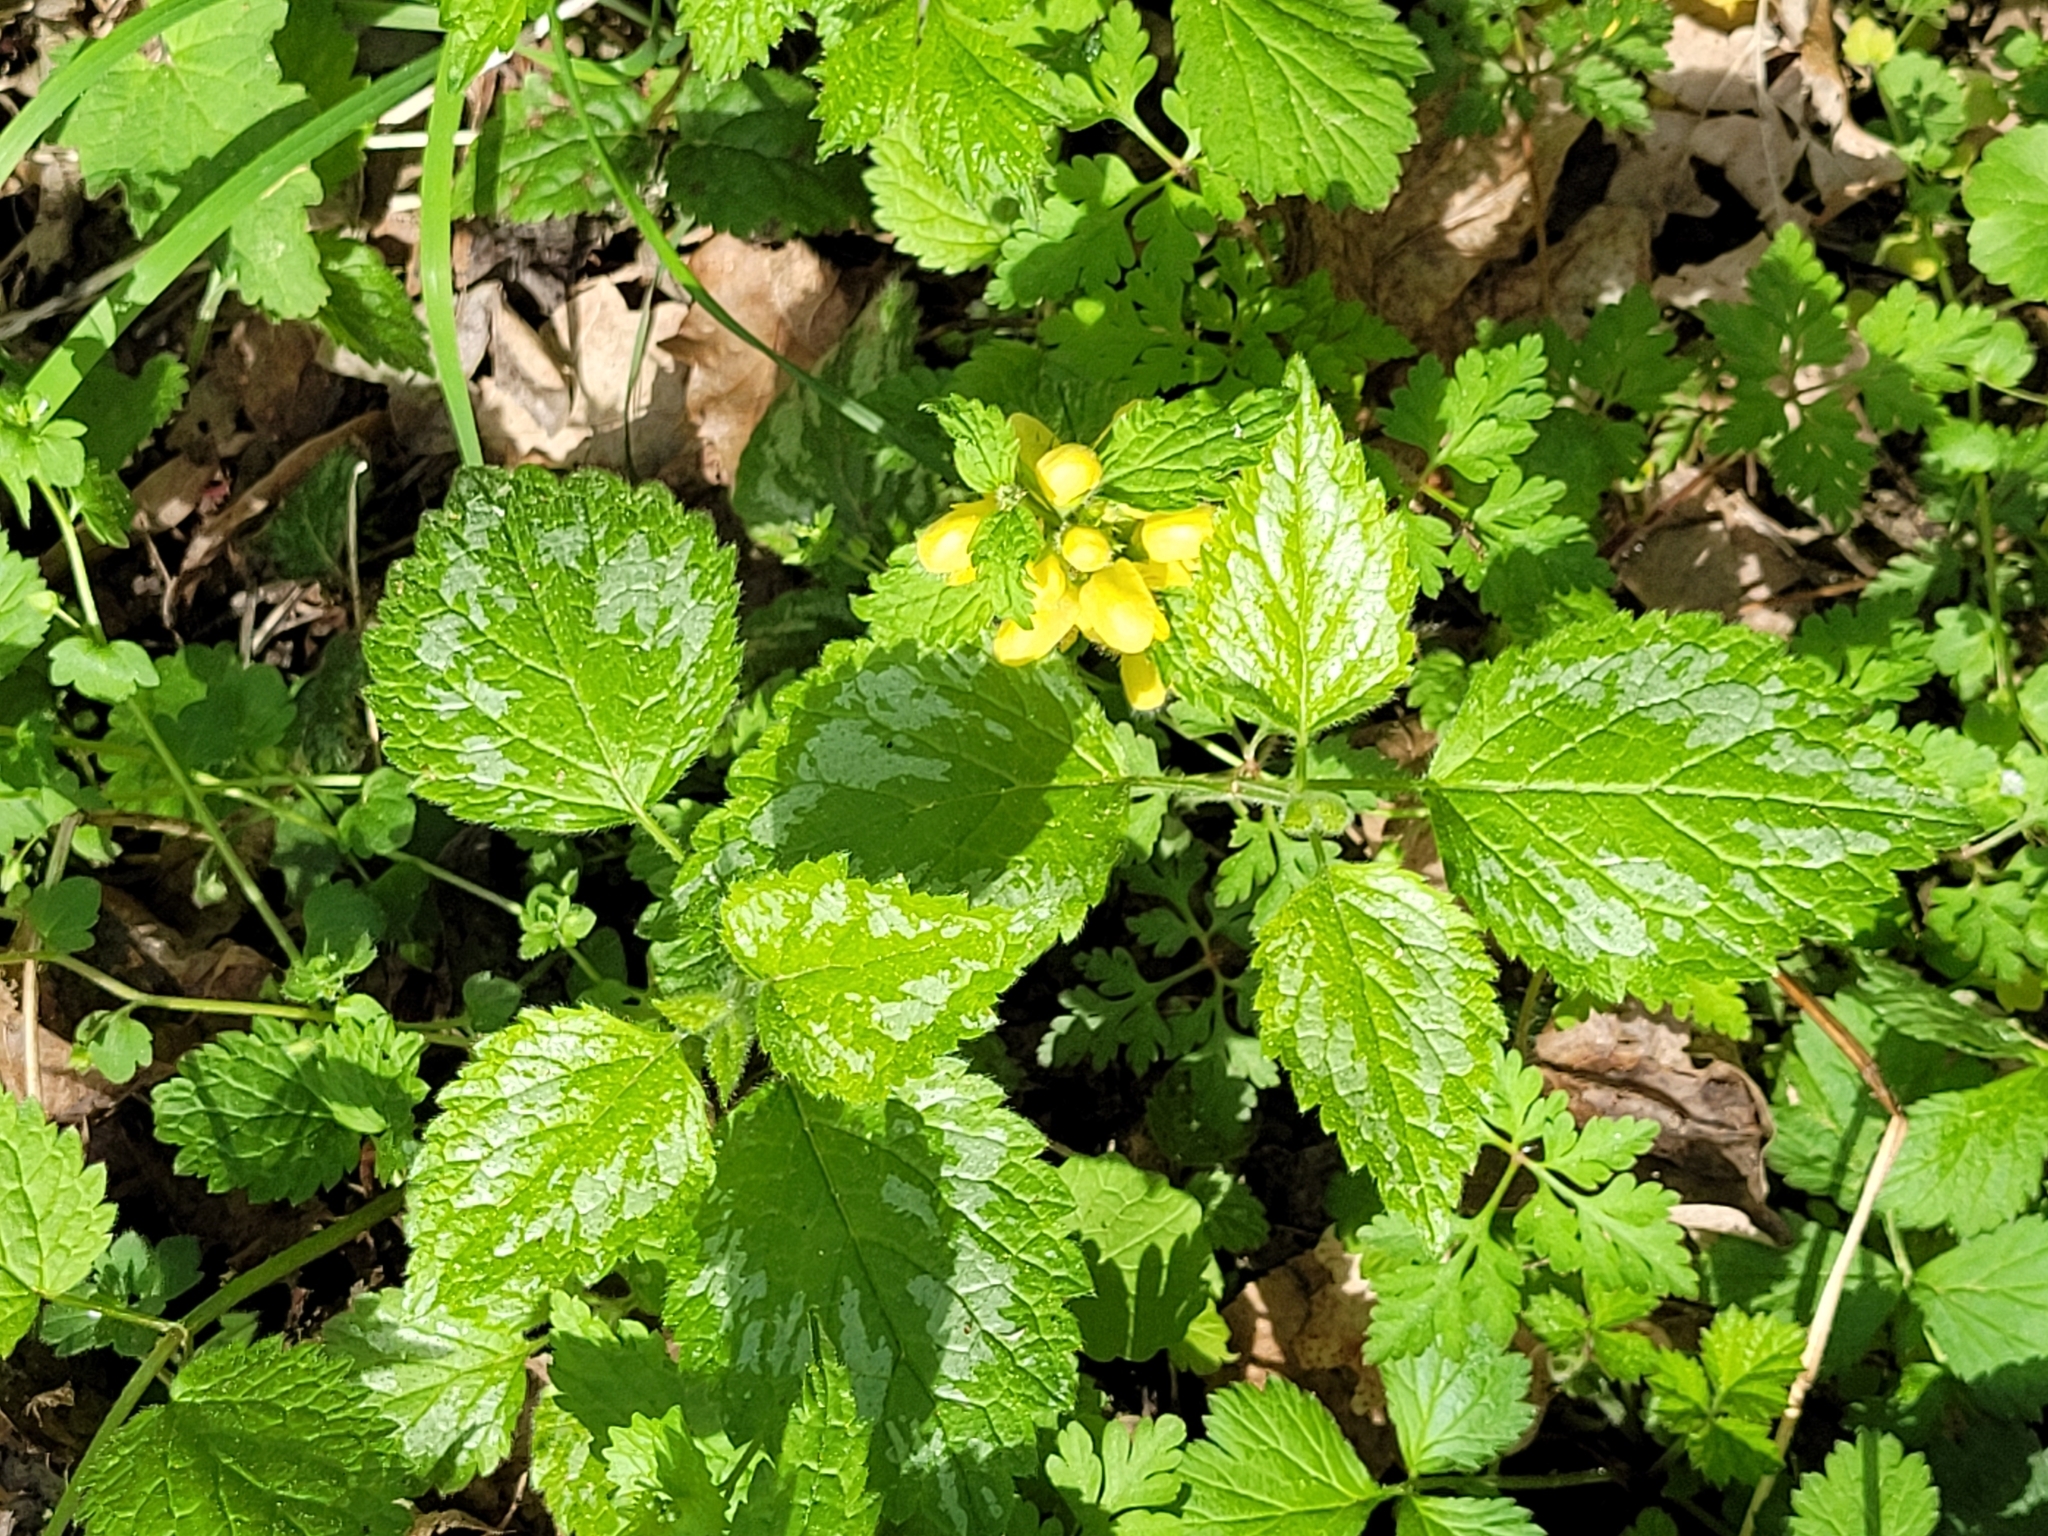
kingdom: Plantae
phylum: Tracheophyta
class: Magnoliopsida
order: Lamiales
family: Lamiaceae
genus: Lamium
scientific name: Lamium galeobdolon
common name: Yellow archangel
